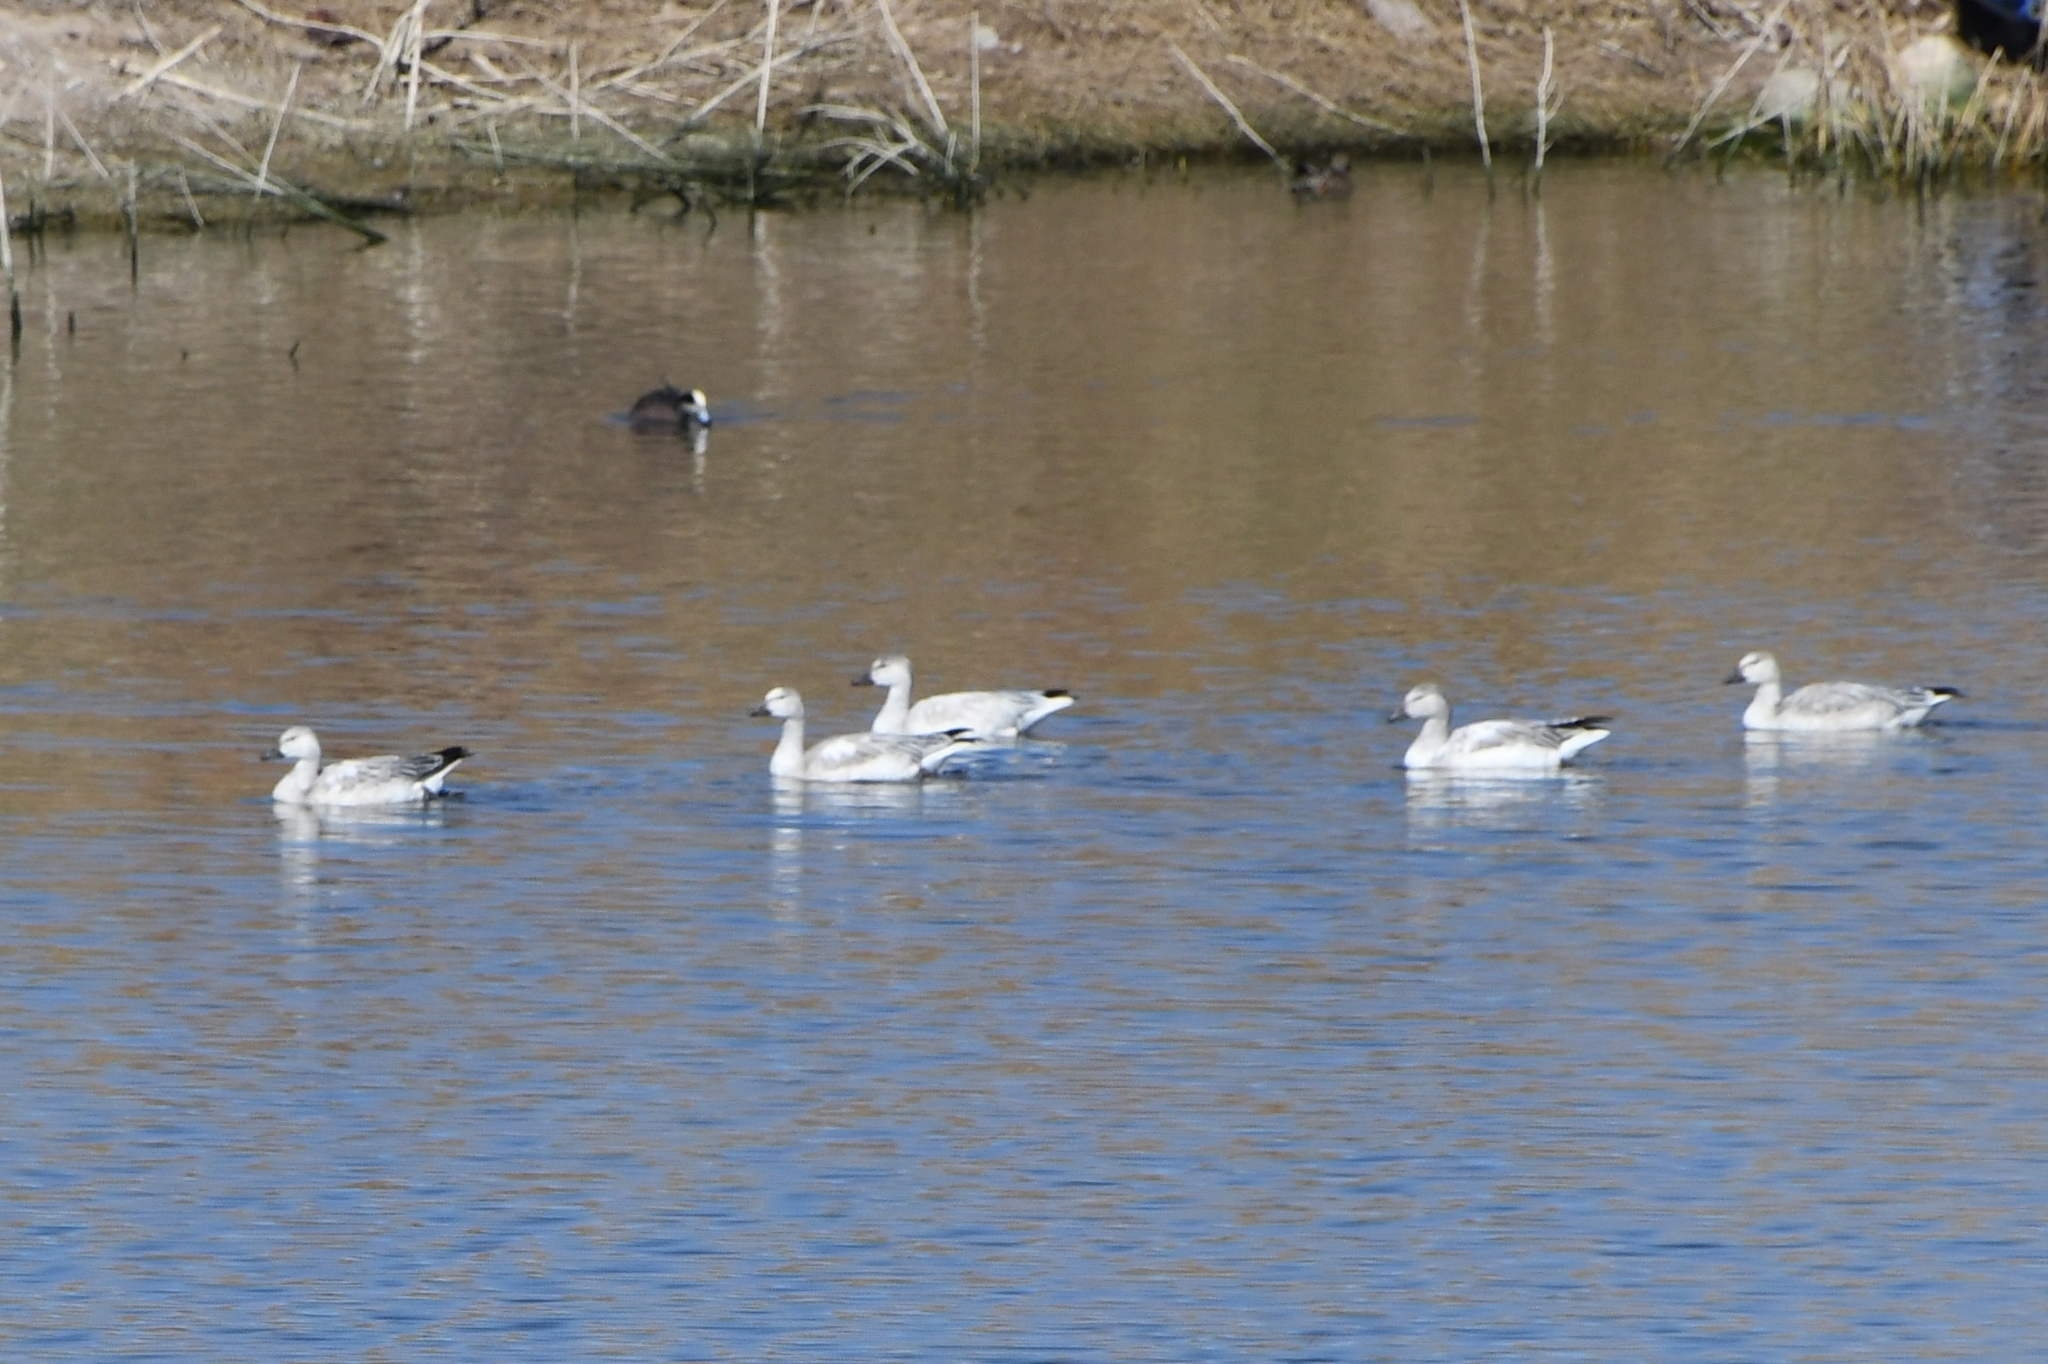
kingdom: Animalia
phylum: Chordata
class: Aves
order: Anseriformes
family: Anatidae
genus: Anser
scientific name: Anser caerulescens
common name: Snow goose
